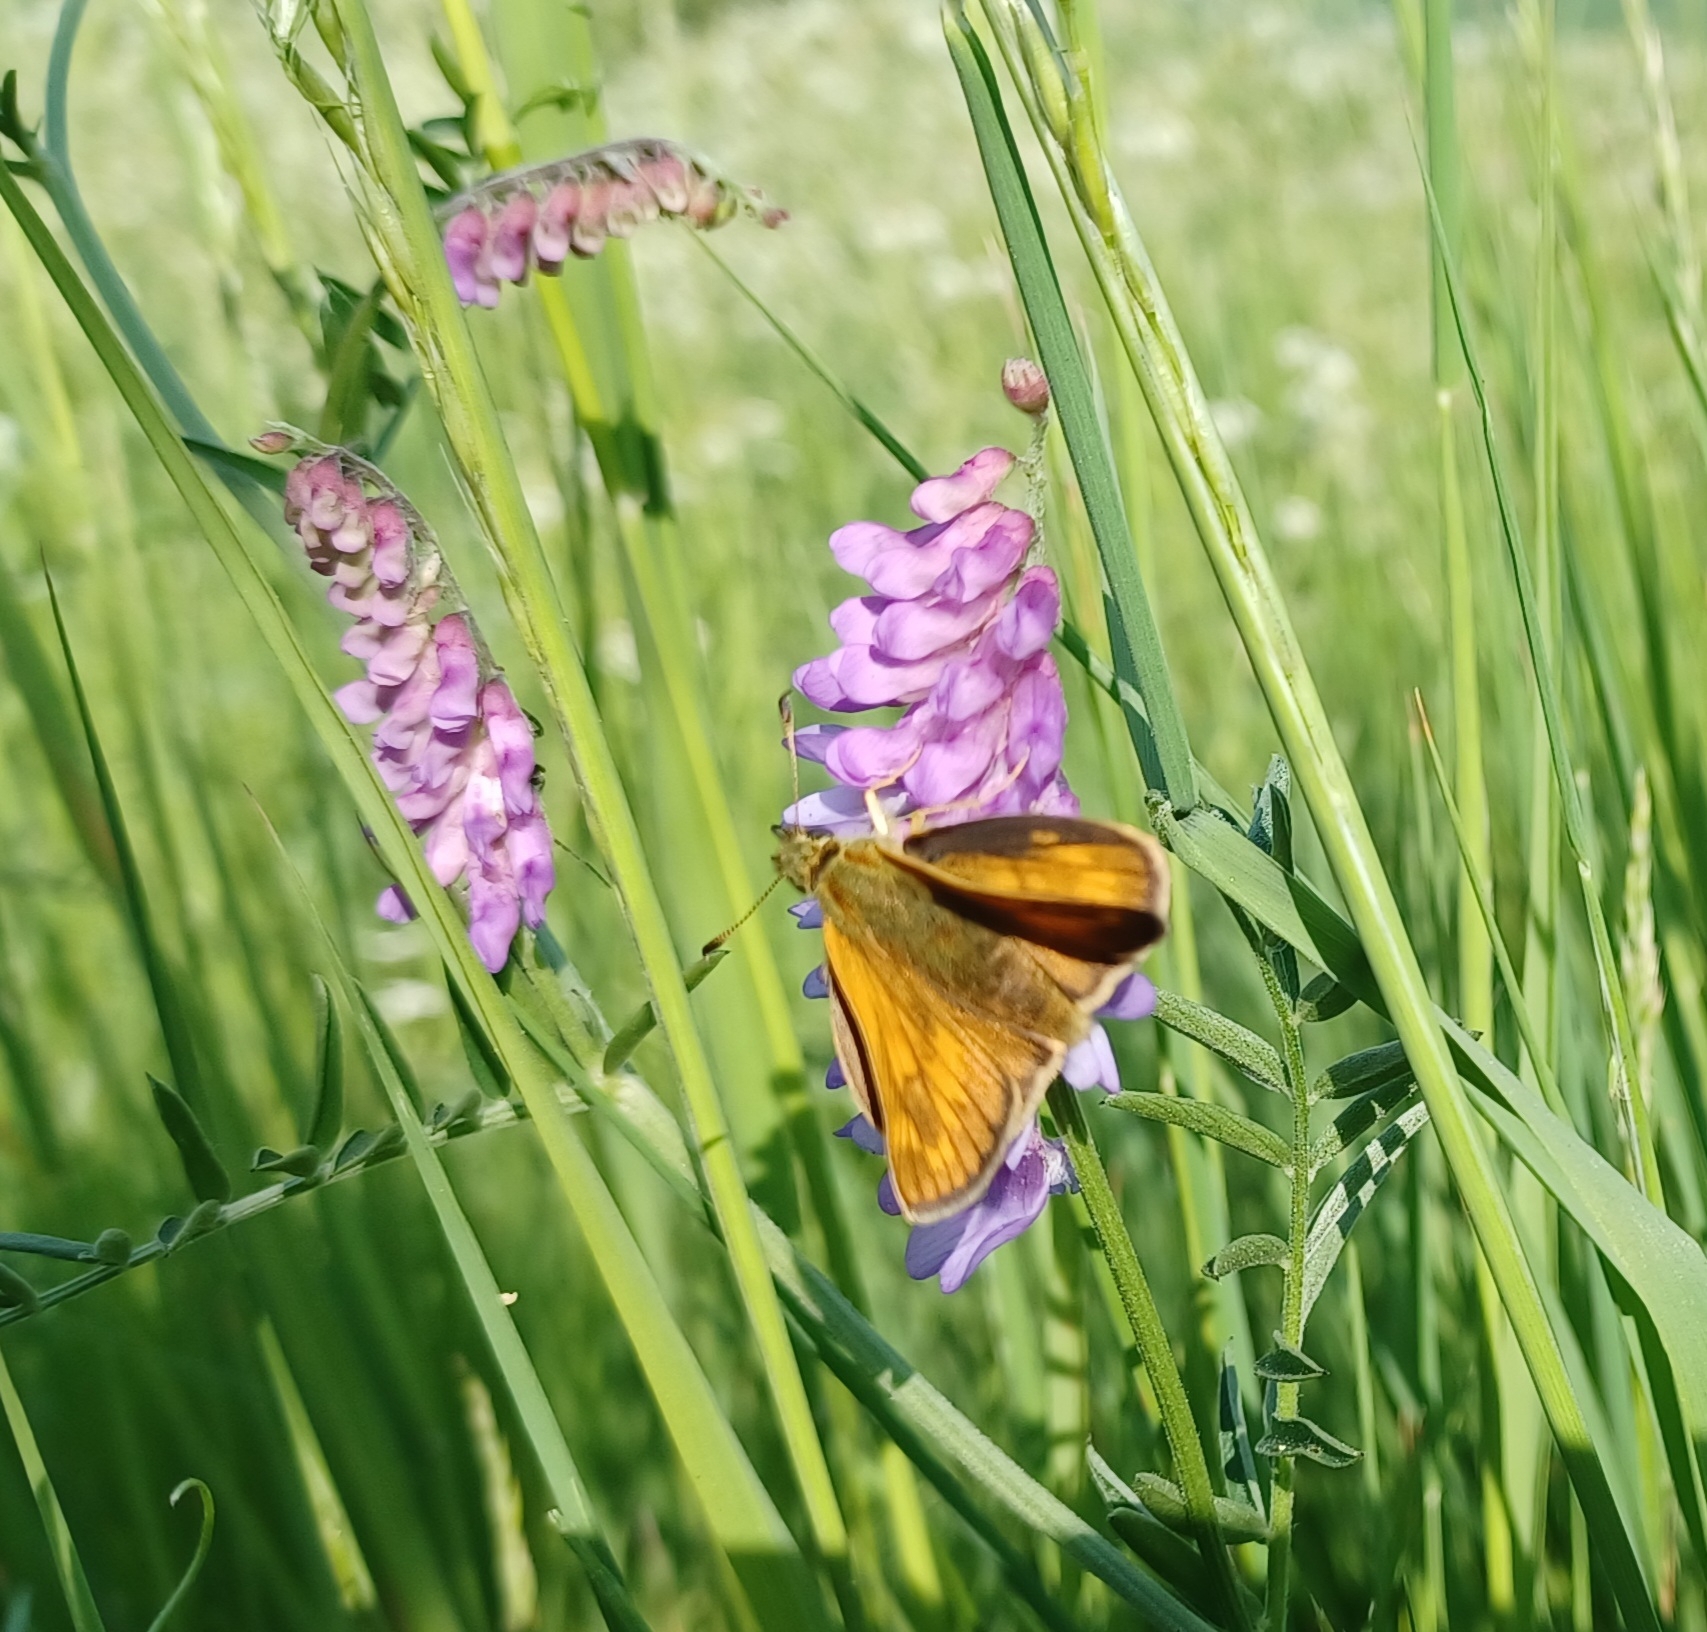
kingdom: Animalia
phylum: Arthropoda
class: Insecta
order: Lepidoptera
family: Hesperiidae
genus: Ochlodes
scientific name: Ochlodes venata
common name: Large skipper
